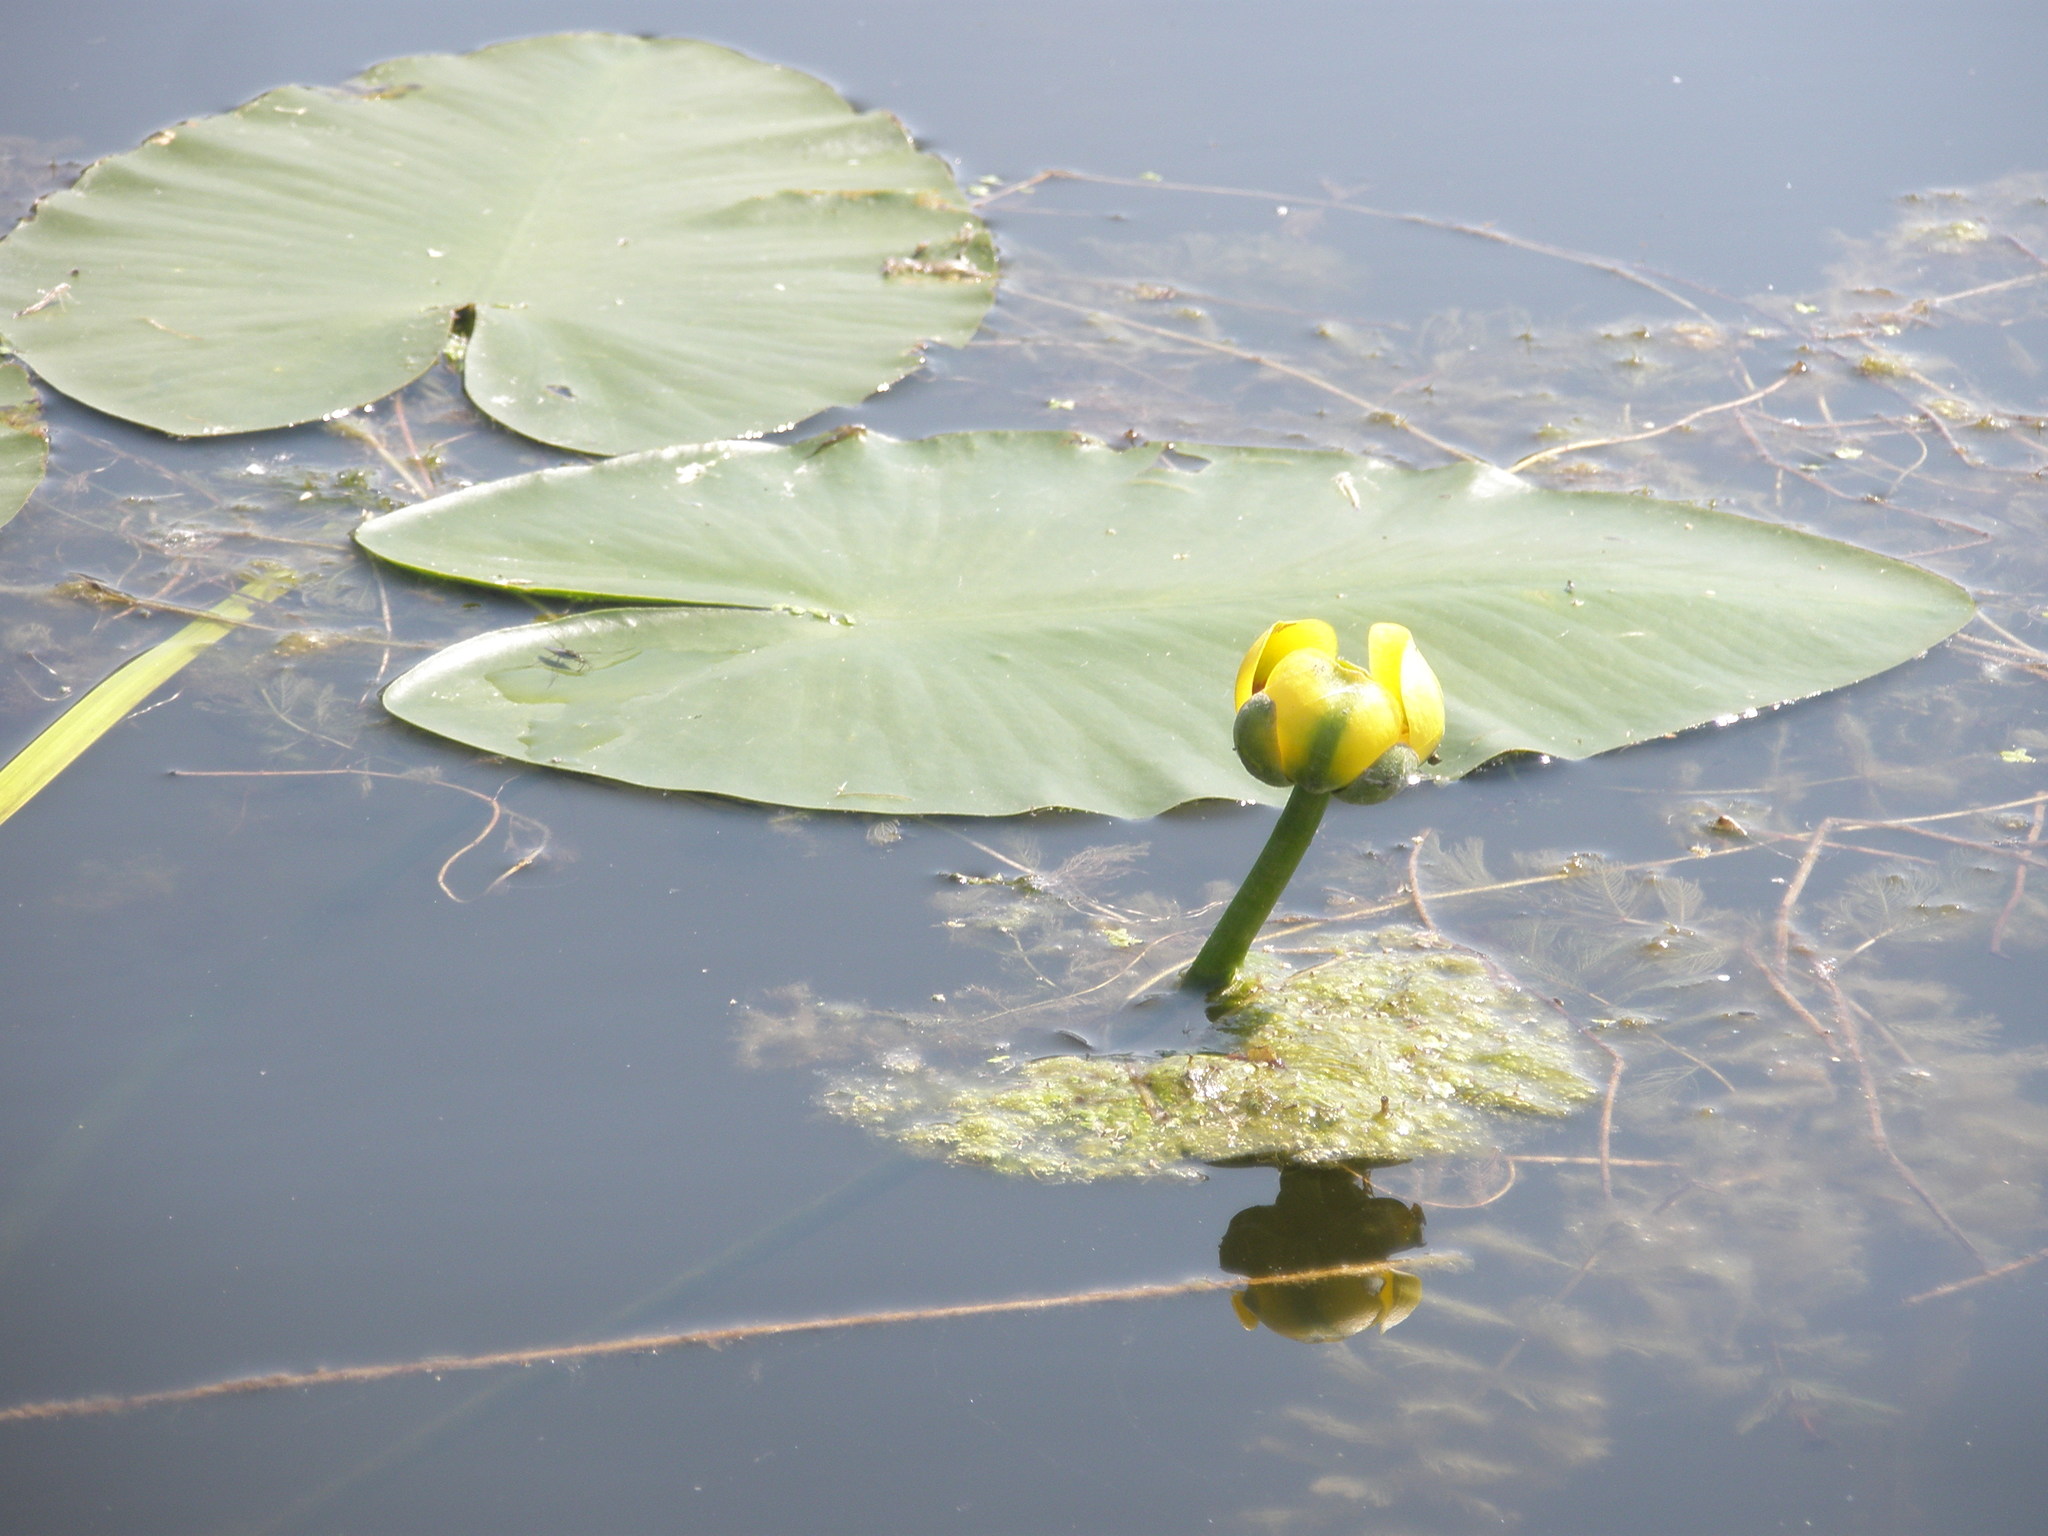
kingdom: Plantae
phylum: Tracheophyta
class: Magnoliopsida
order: Nymphaeales
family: Nymphaeaceae
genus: Nuphar
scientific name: Nuphar variegata
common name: Beaver-root
